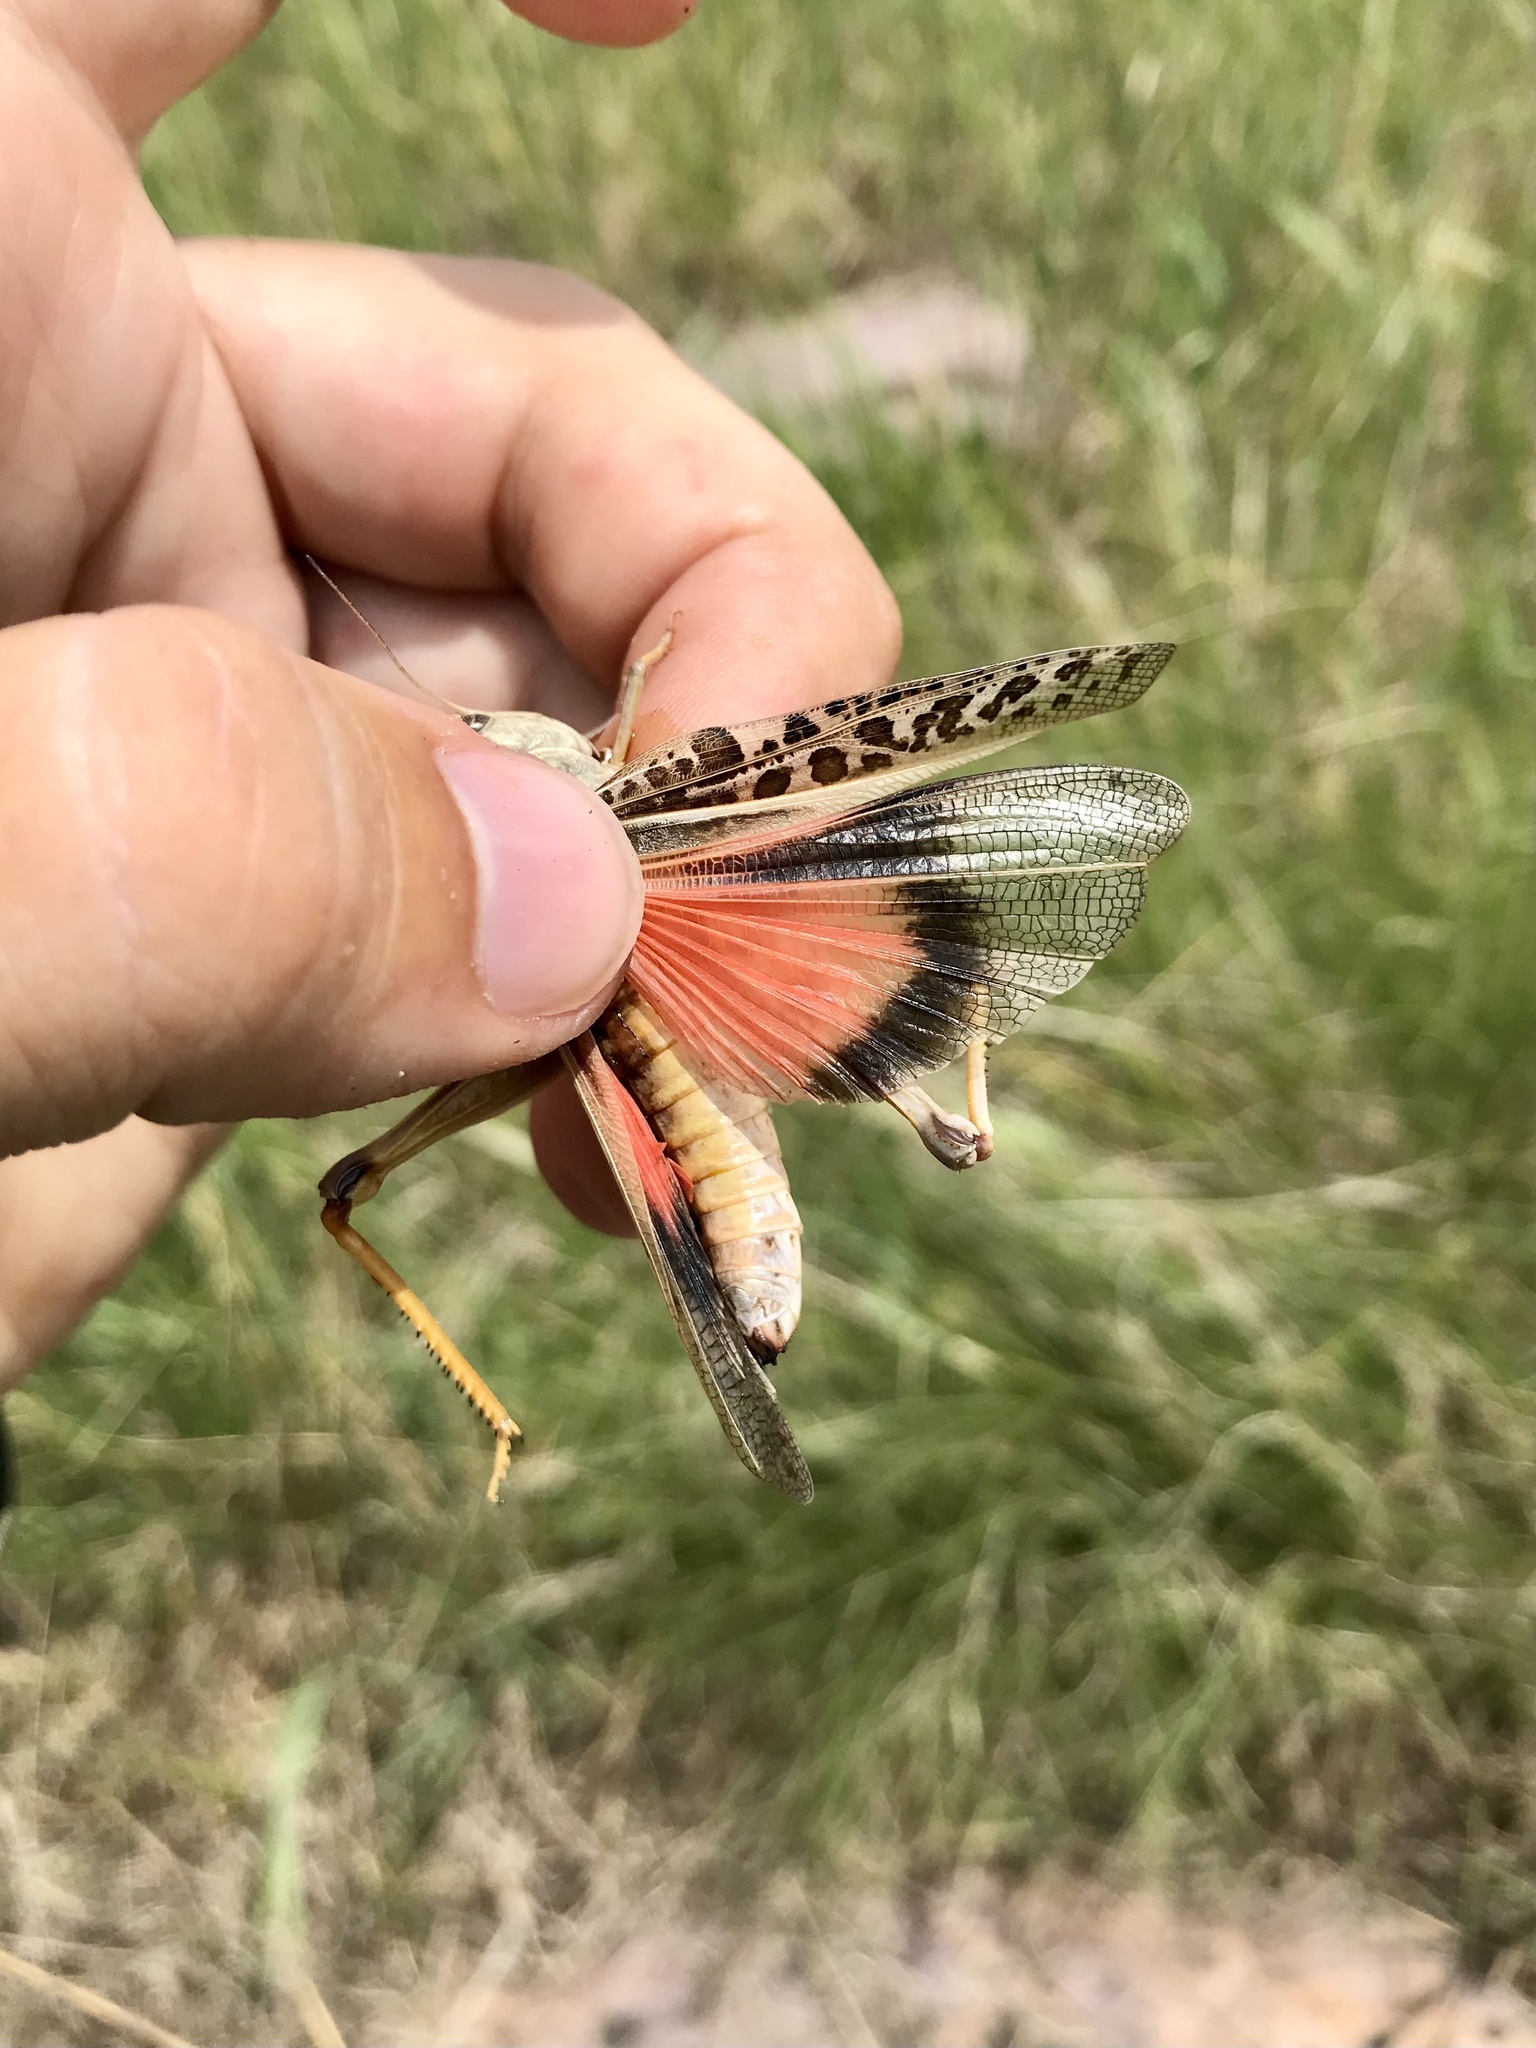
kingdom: Animalia
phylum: Arthropoda
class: Insecta
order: Orthoptera
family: Acrididae
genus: Pardalophora
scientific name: Pardalophora haldemanii
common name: Haldeman's locust
